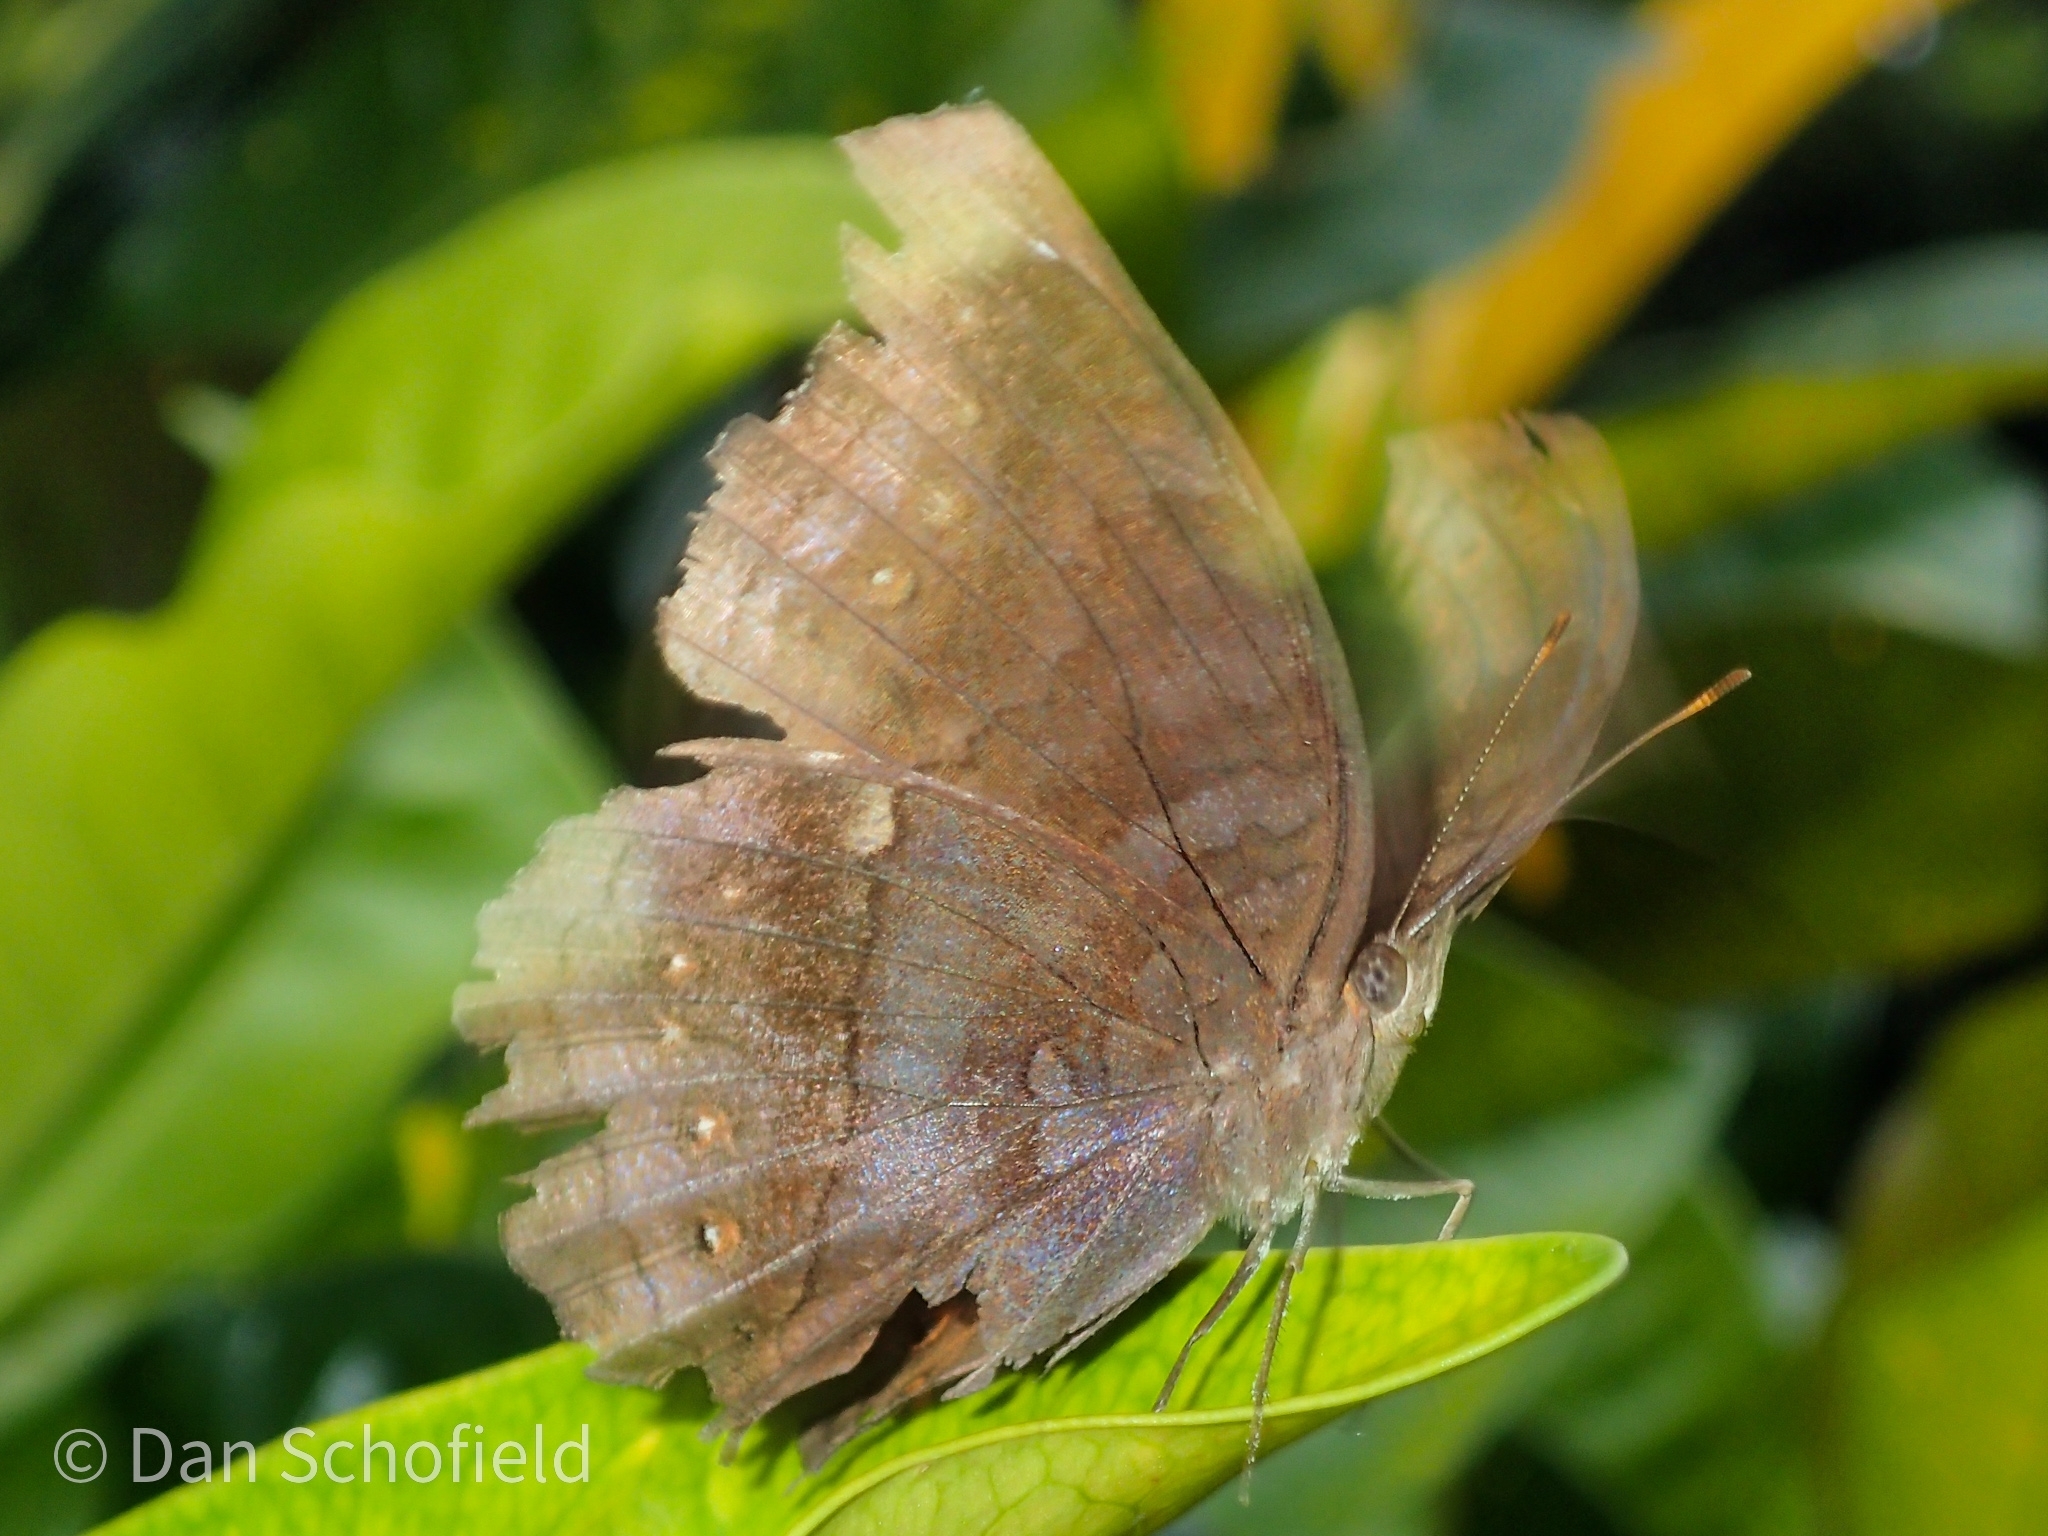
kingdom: Animalia
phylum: Arthropoda
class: Insecta
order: Lepidoptera
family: Nymphalidae
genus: Junonia
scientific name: Junonia
